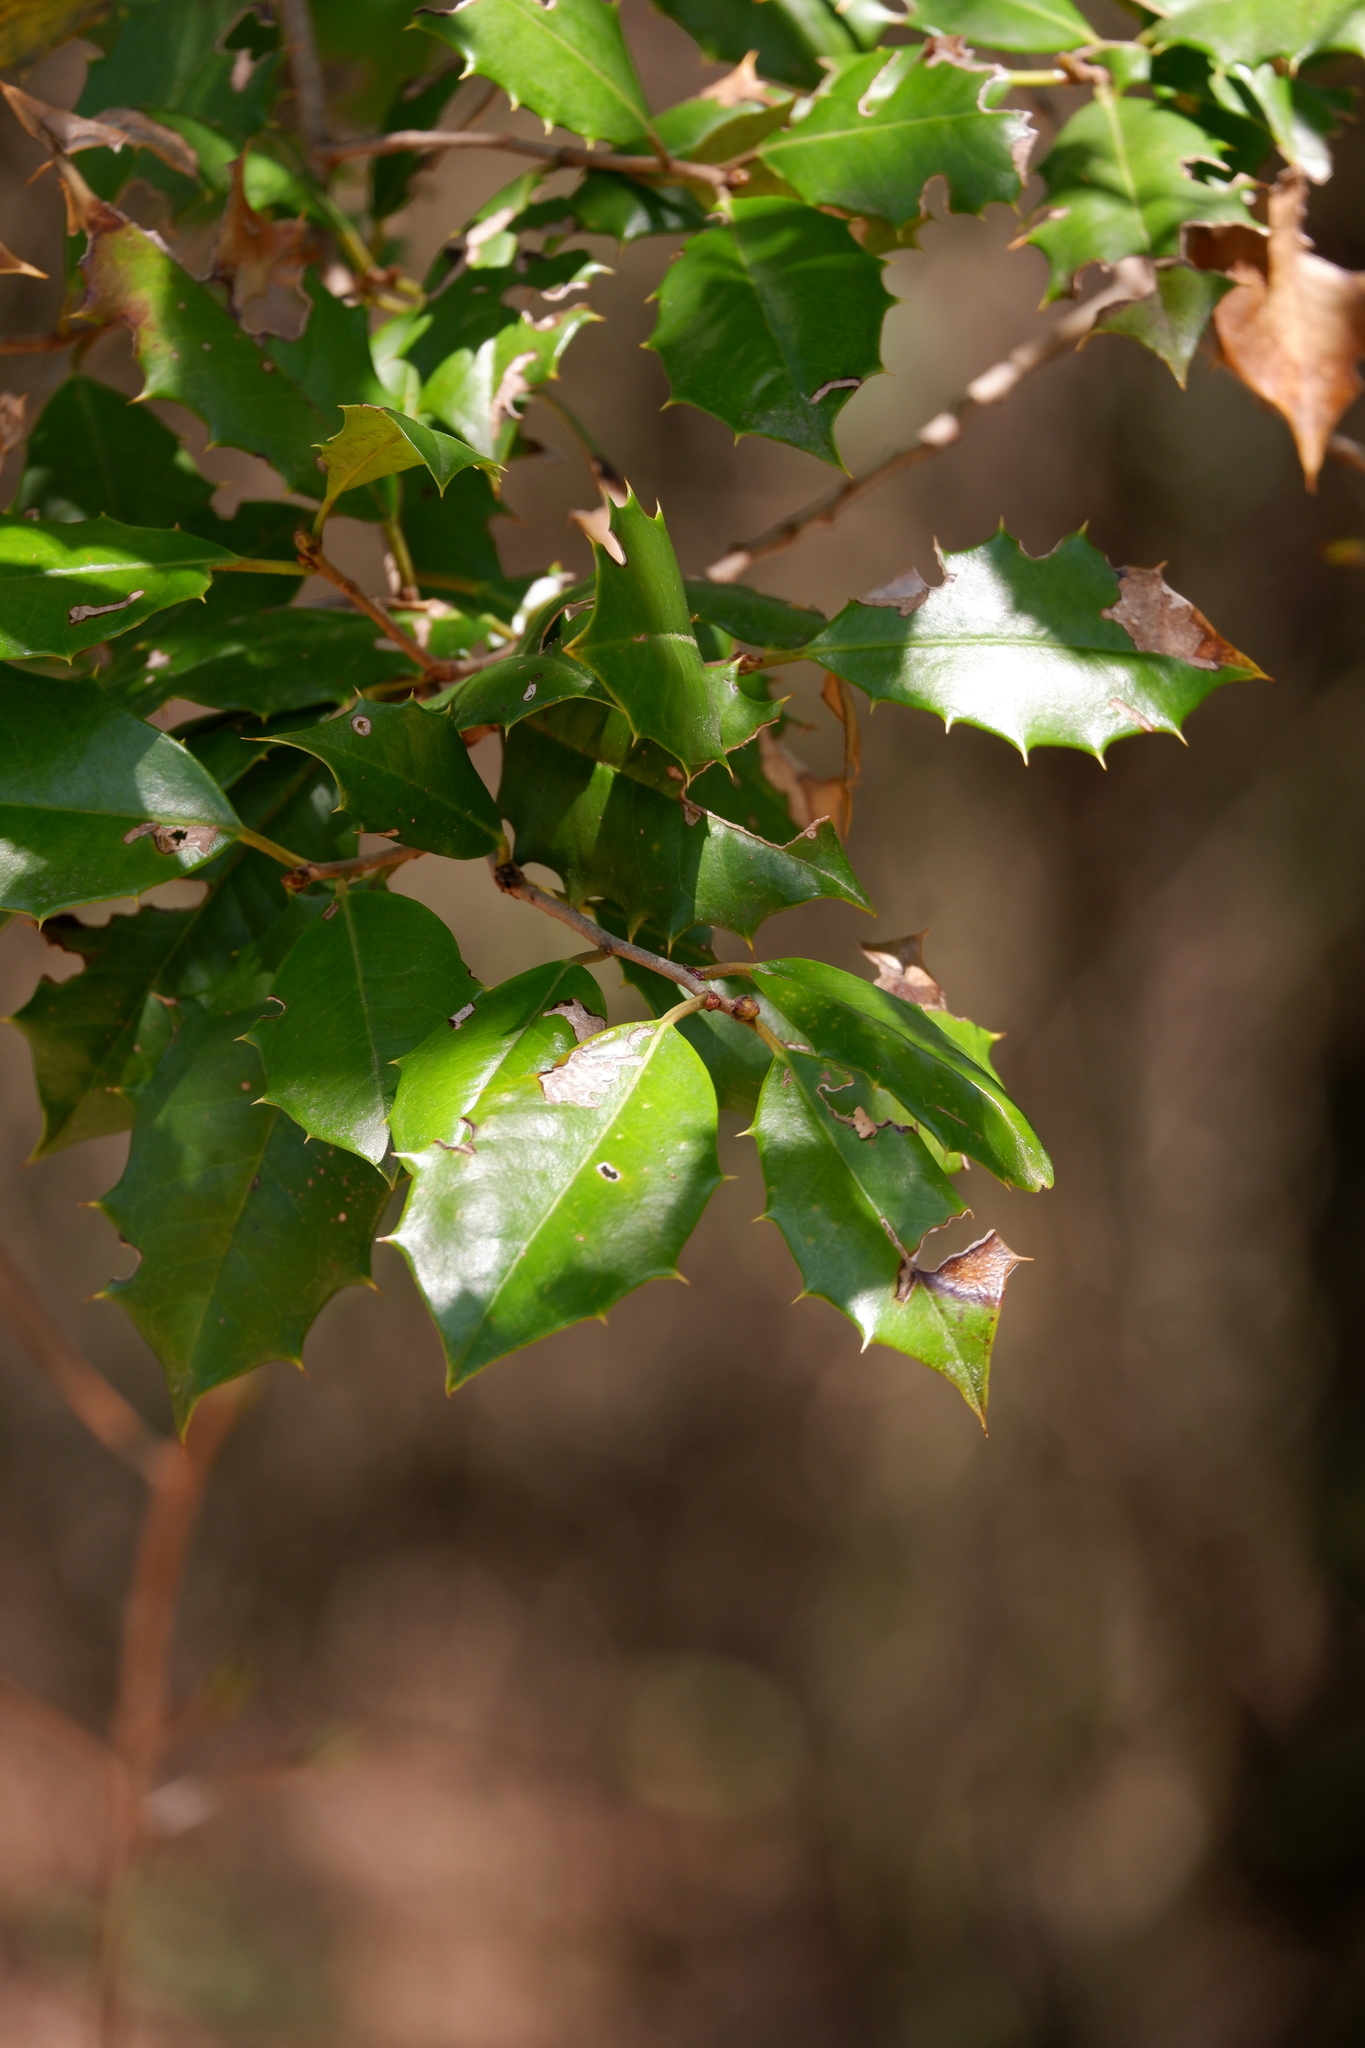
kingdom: Plantae
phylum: Tracheophyta
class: Magnoliopsida
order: Aquifoliales
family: Aquifoliaceae
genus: Ilex
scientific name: Ilex opaca
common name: American holly
